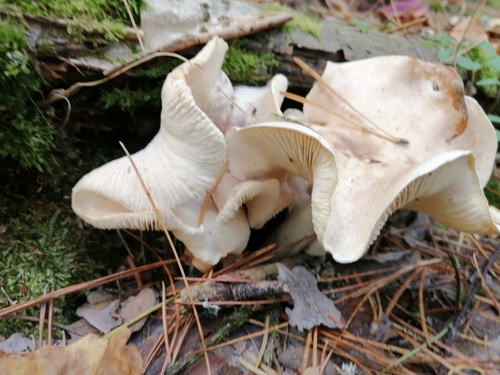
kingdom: Fungi
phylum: Basidiomycota
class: Agaricomycetes
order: Agaricales
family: Tricholomataceae
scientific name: Tricholomataceae
